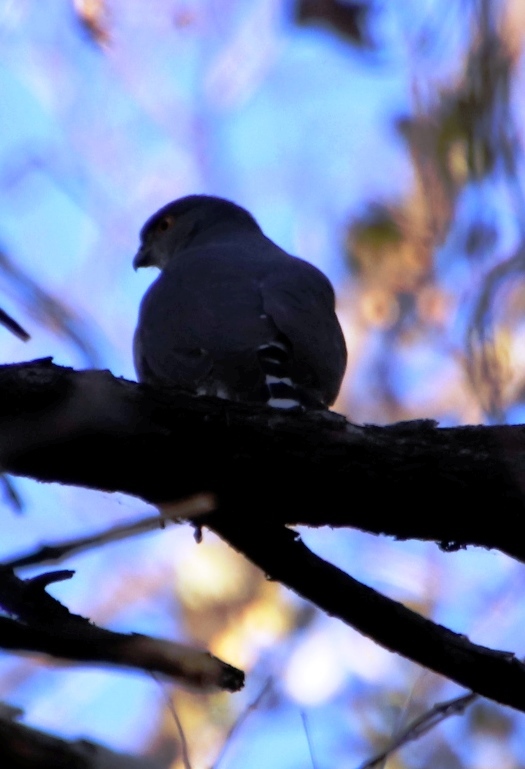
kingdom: Animalia
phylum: Chordata
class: Aves
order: Accipitriformes
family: Accipitridae
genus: Accipiter
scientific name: Accipiter minullus
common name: Little sparrowhawk
